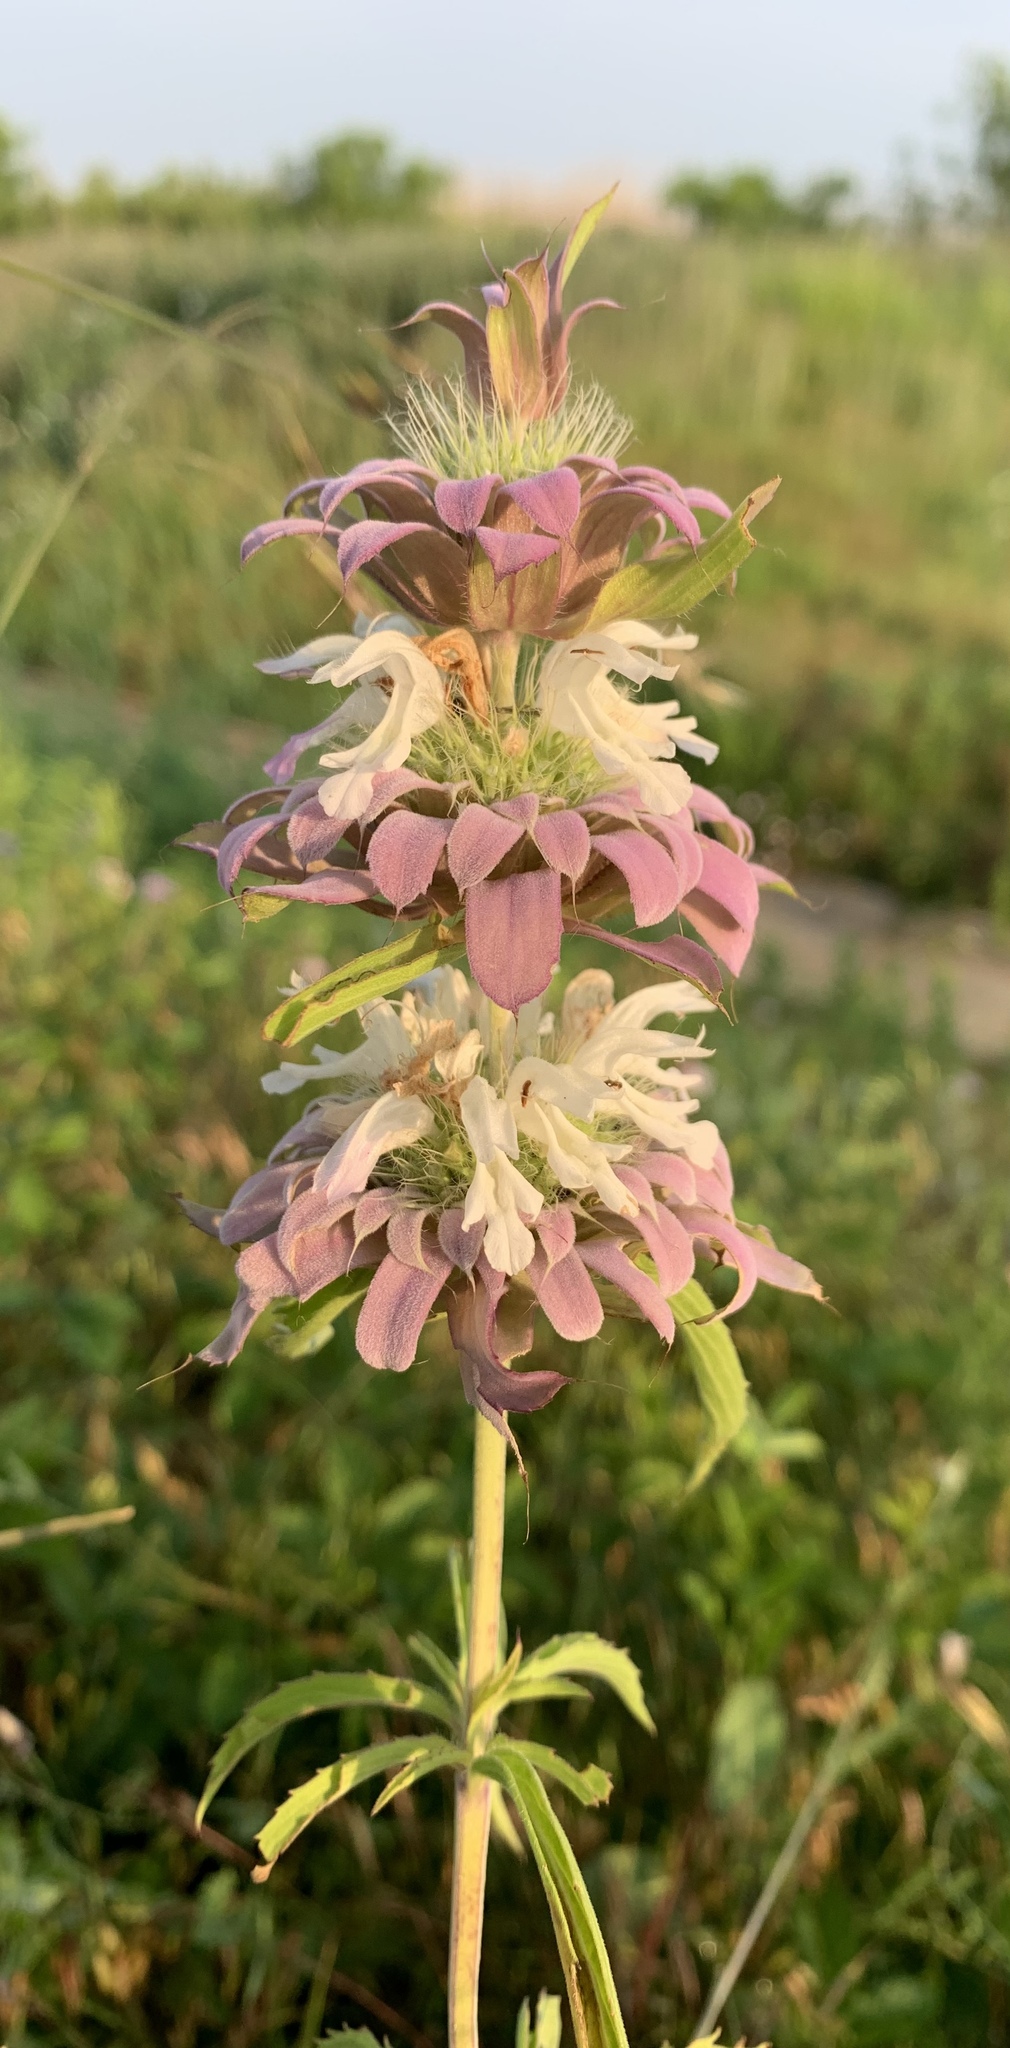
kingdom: Plantae
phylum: Tracheophyta
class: Magnoliopsida
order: Lamiales
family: Lamiaceae
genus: Monarda
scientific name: Monarda citriodora
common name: Lemon beebalm
